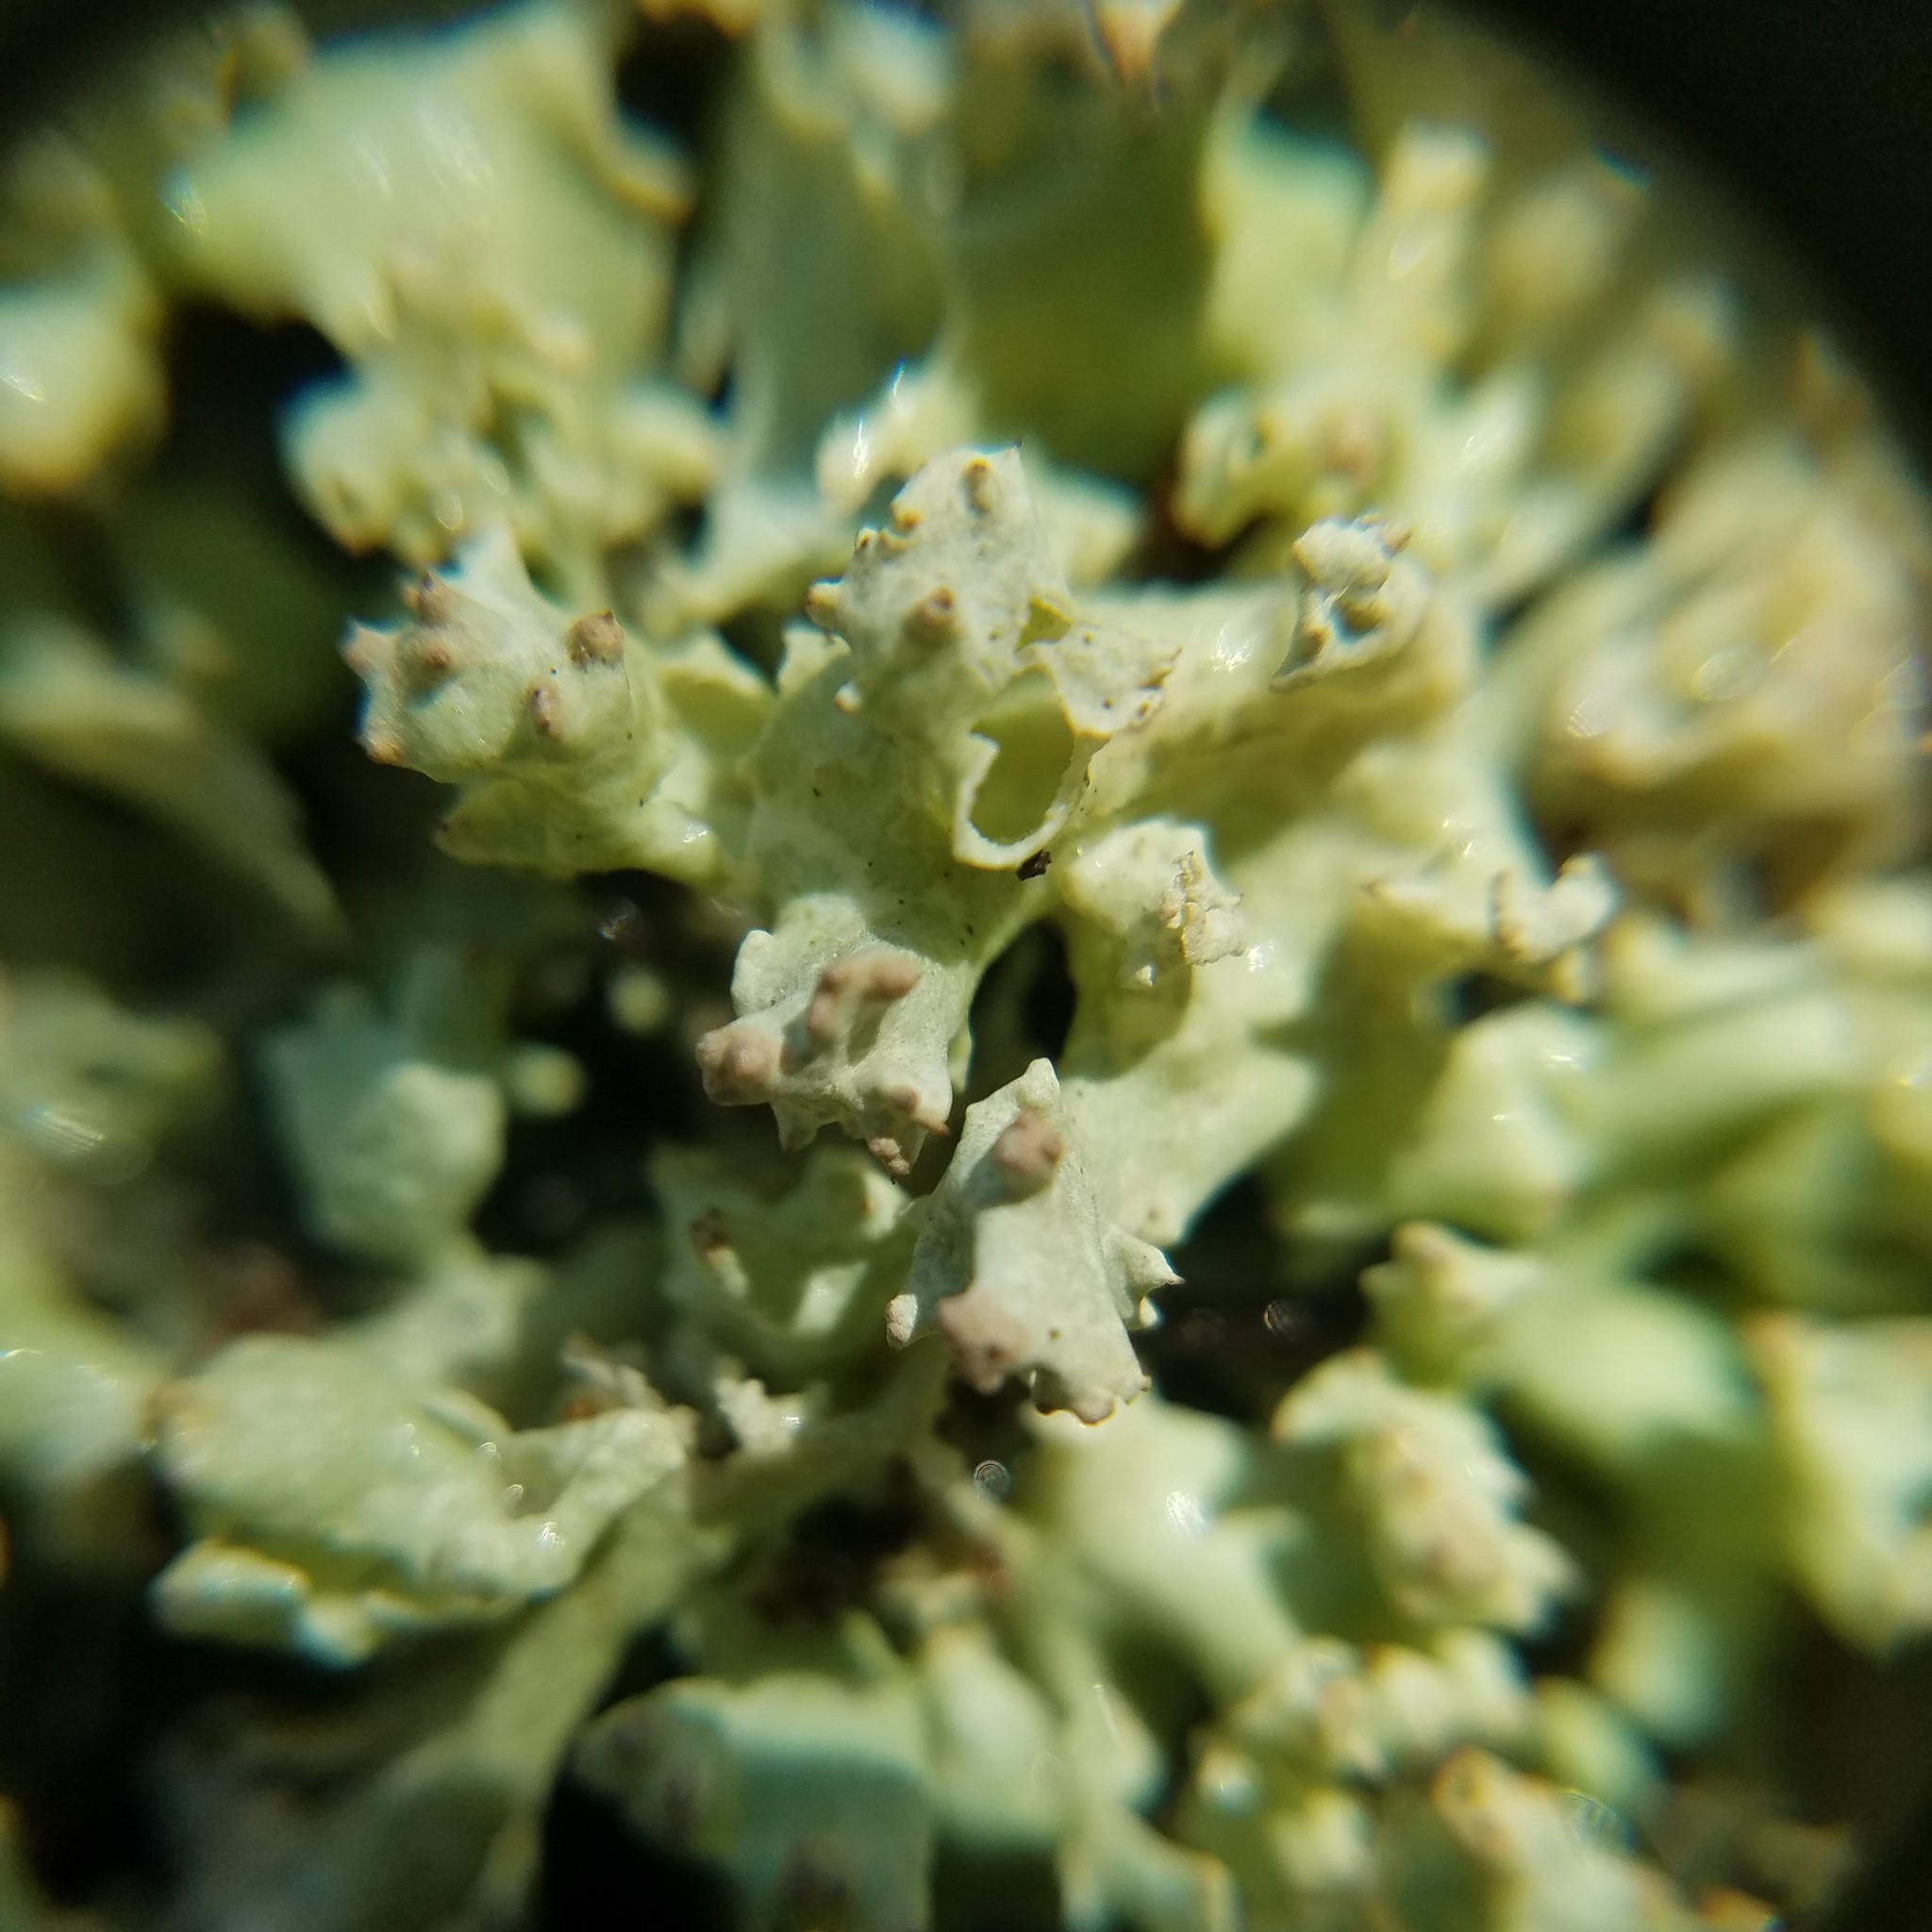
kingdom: Fungi
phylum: Ascomycota
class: Lecanoromycetes
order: Lecanorales
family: Cladoniaceae
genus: Cladonia
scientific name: Cladonia caroliniana
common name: Granite thorn
